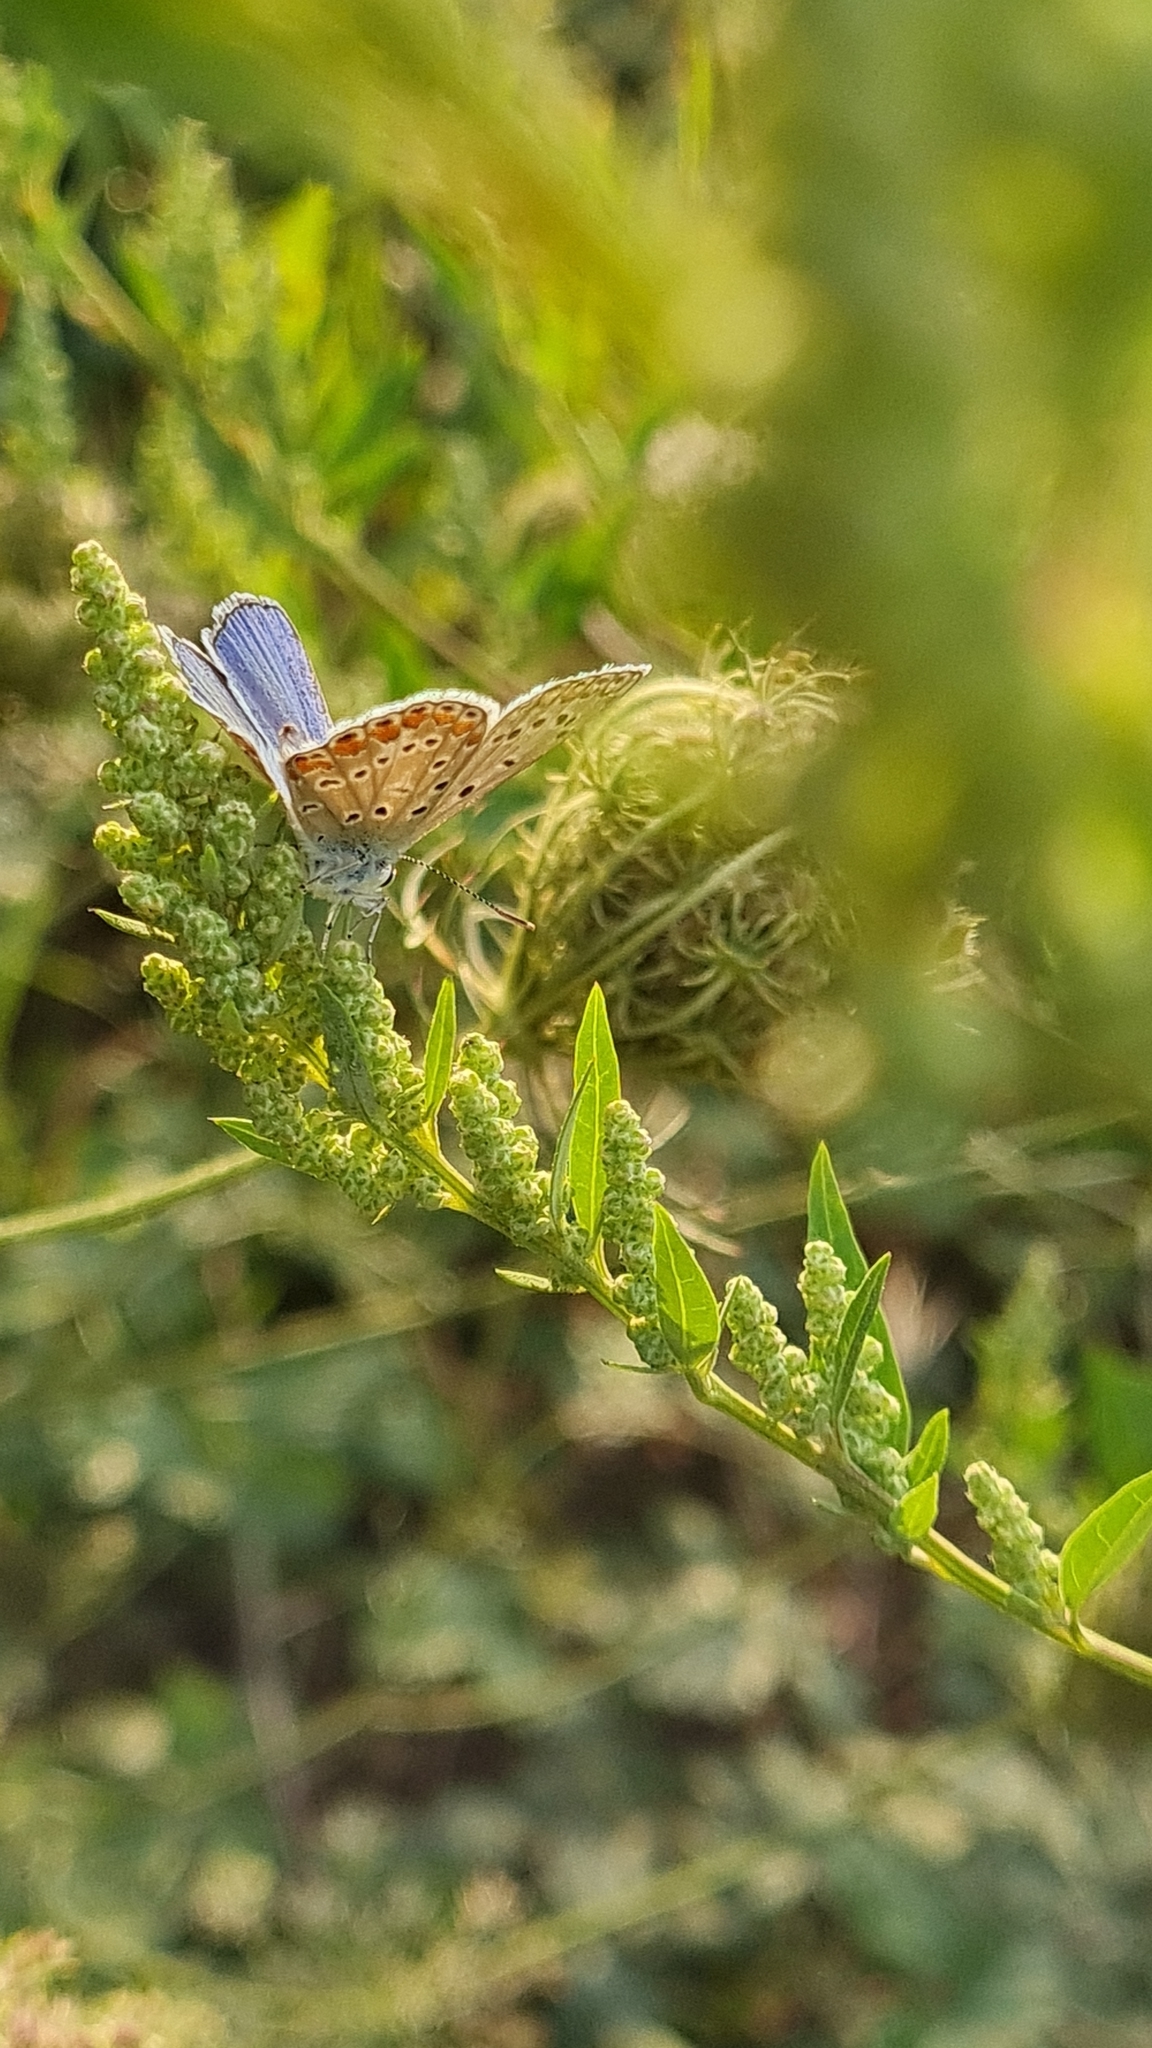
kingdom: Animalia
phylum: Arthropoda
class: Insecta
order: Lepidoptera
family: Lycaenidae
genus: Polyommatus
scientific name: Polyommatus icarus
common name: Common blue
